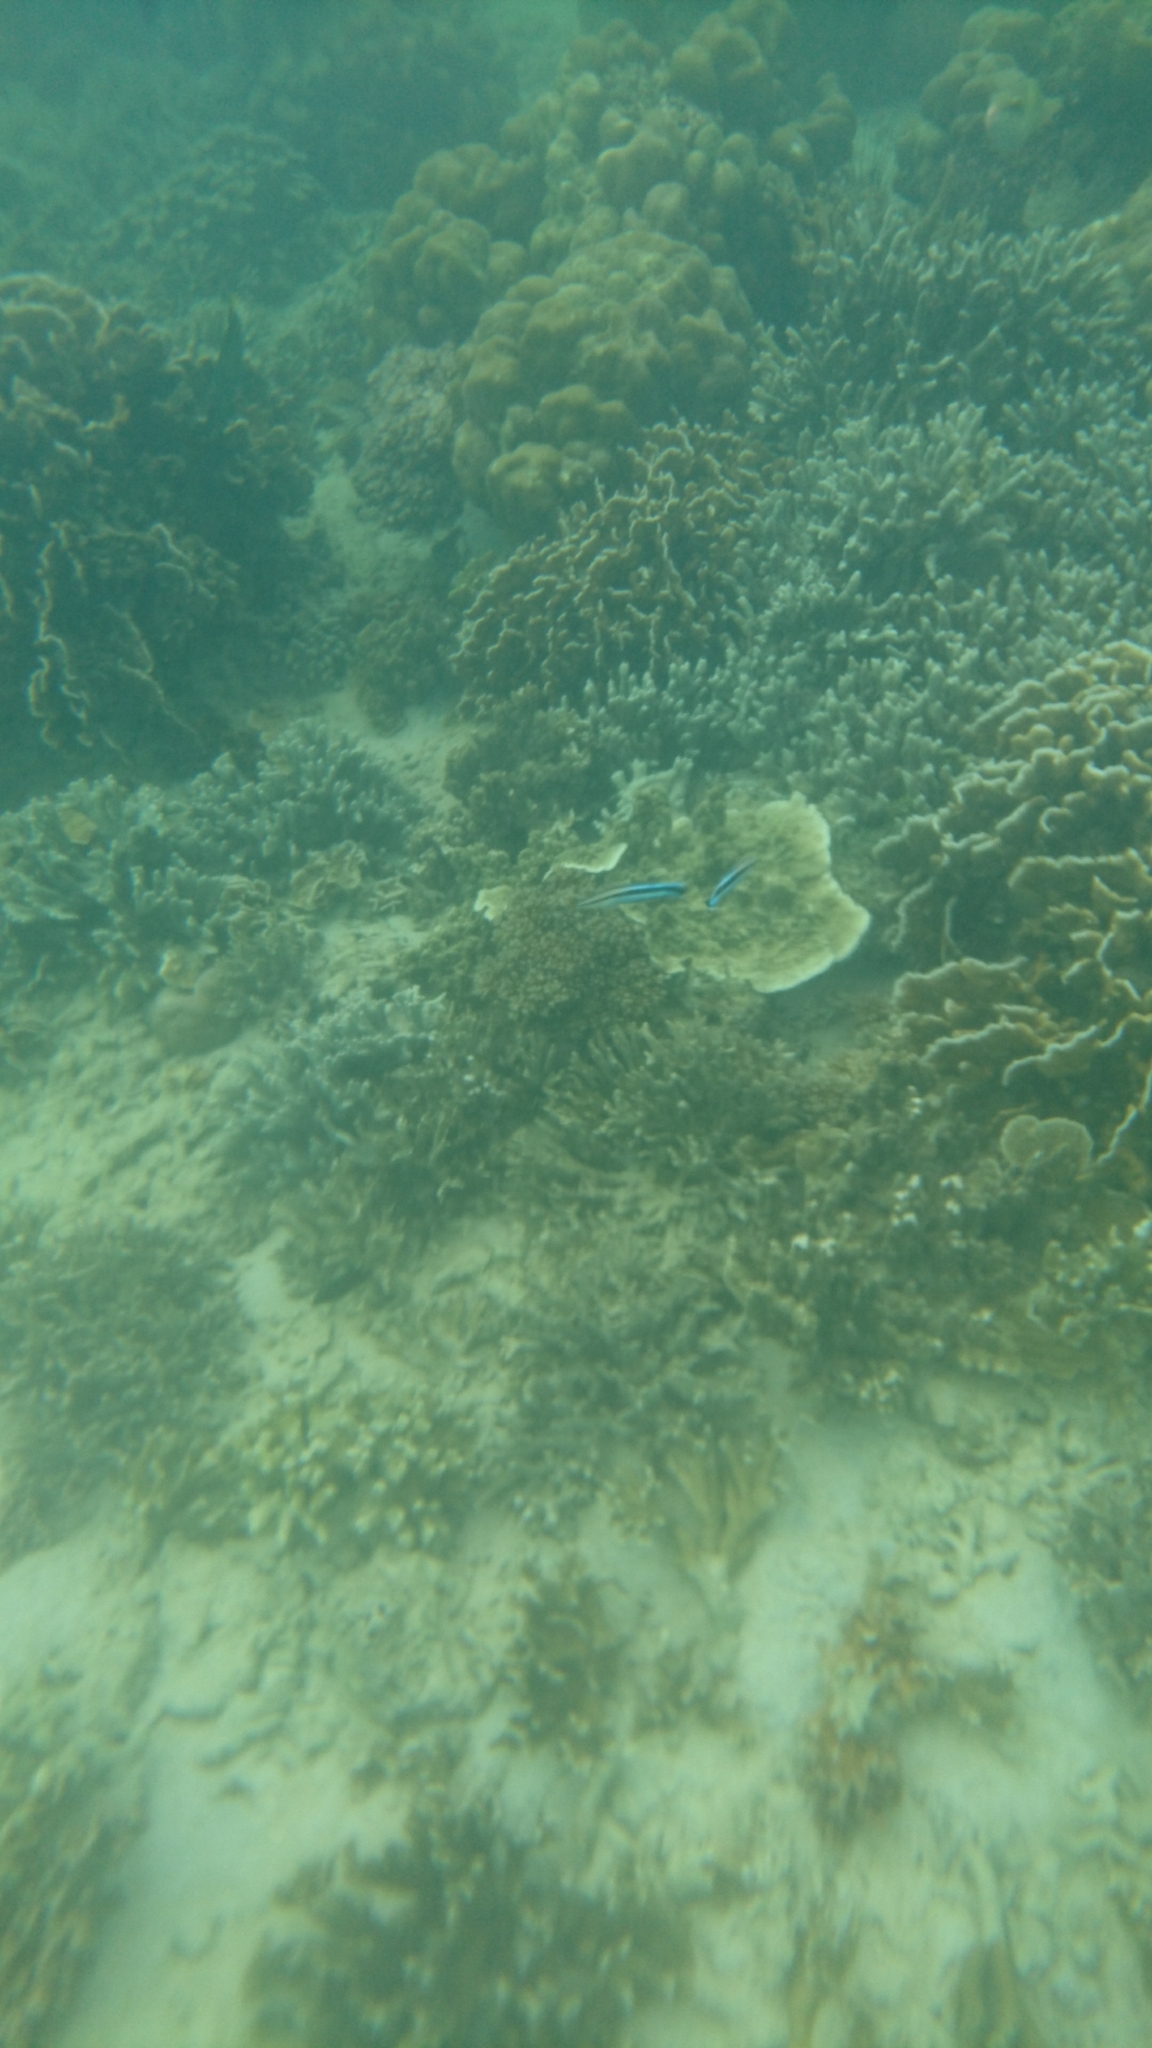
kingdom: Animalia
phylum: Chordata
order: Perciformes
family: Labridae
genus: Labroides
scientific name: Labroides dimidiatus
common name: Blue diesel wrasse
